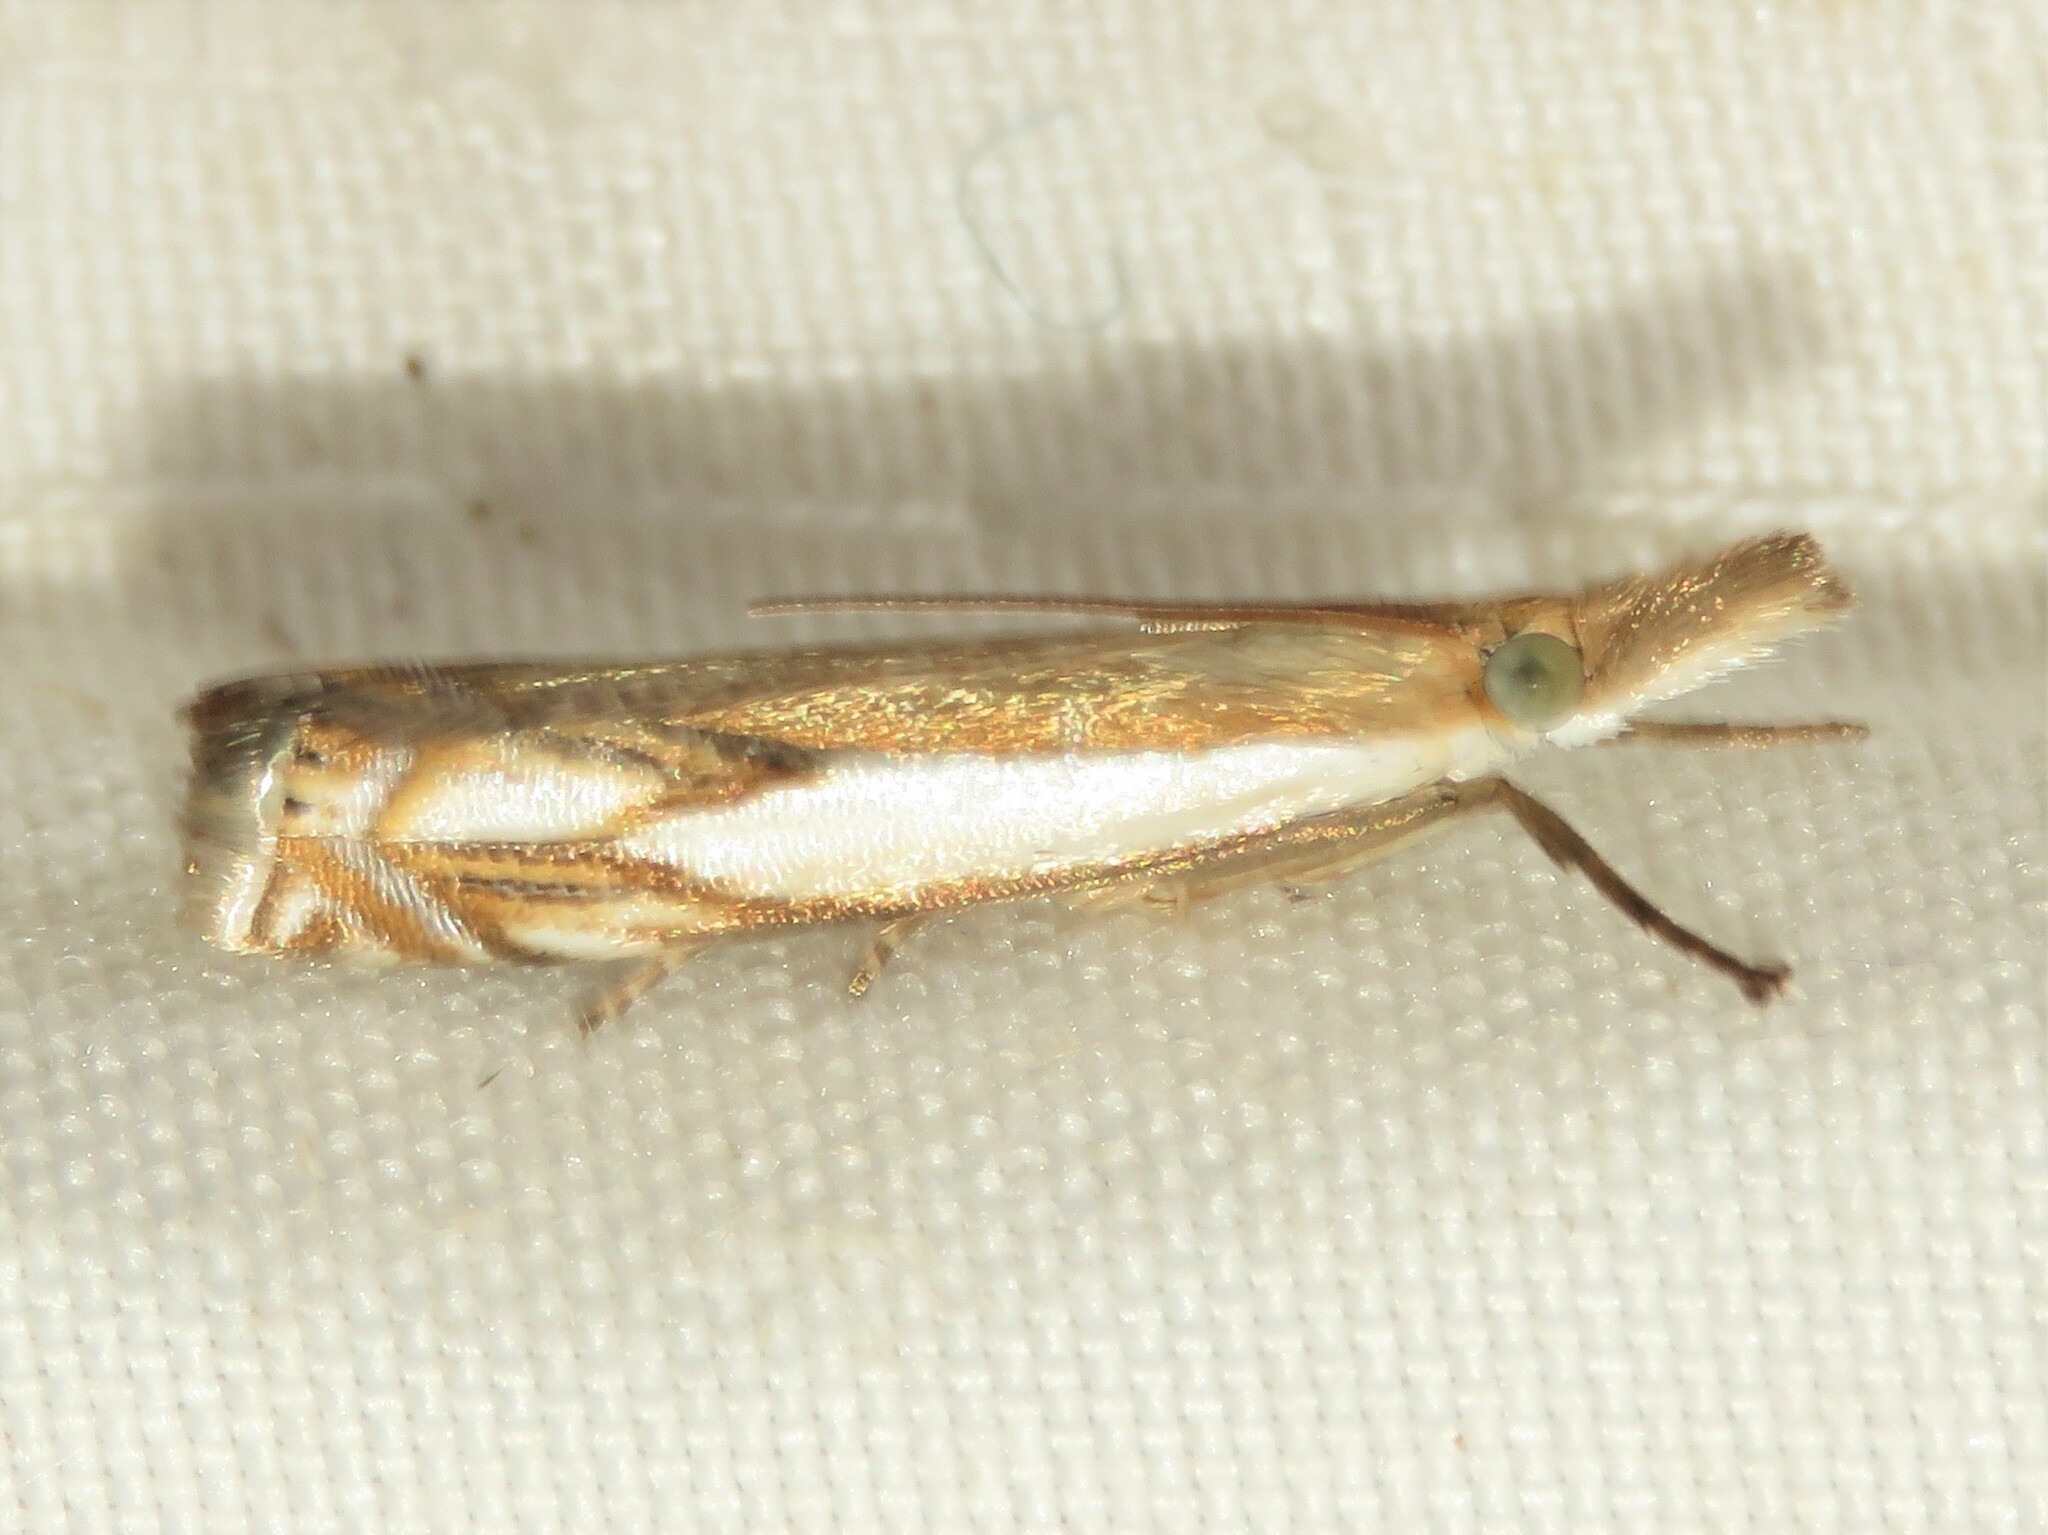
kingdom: Animalia
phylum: Arthropoda
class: Insecta
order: Lepidoptera
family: Crambidae
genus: Crambus
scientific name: Crambus agitatellus
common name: Double-banded grass-veneer
